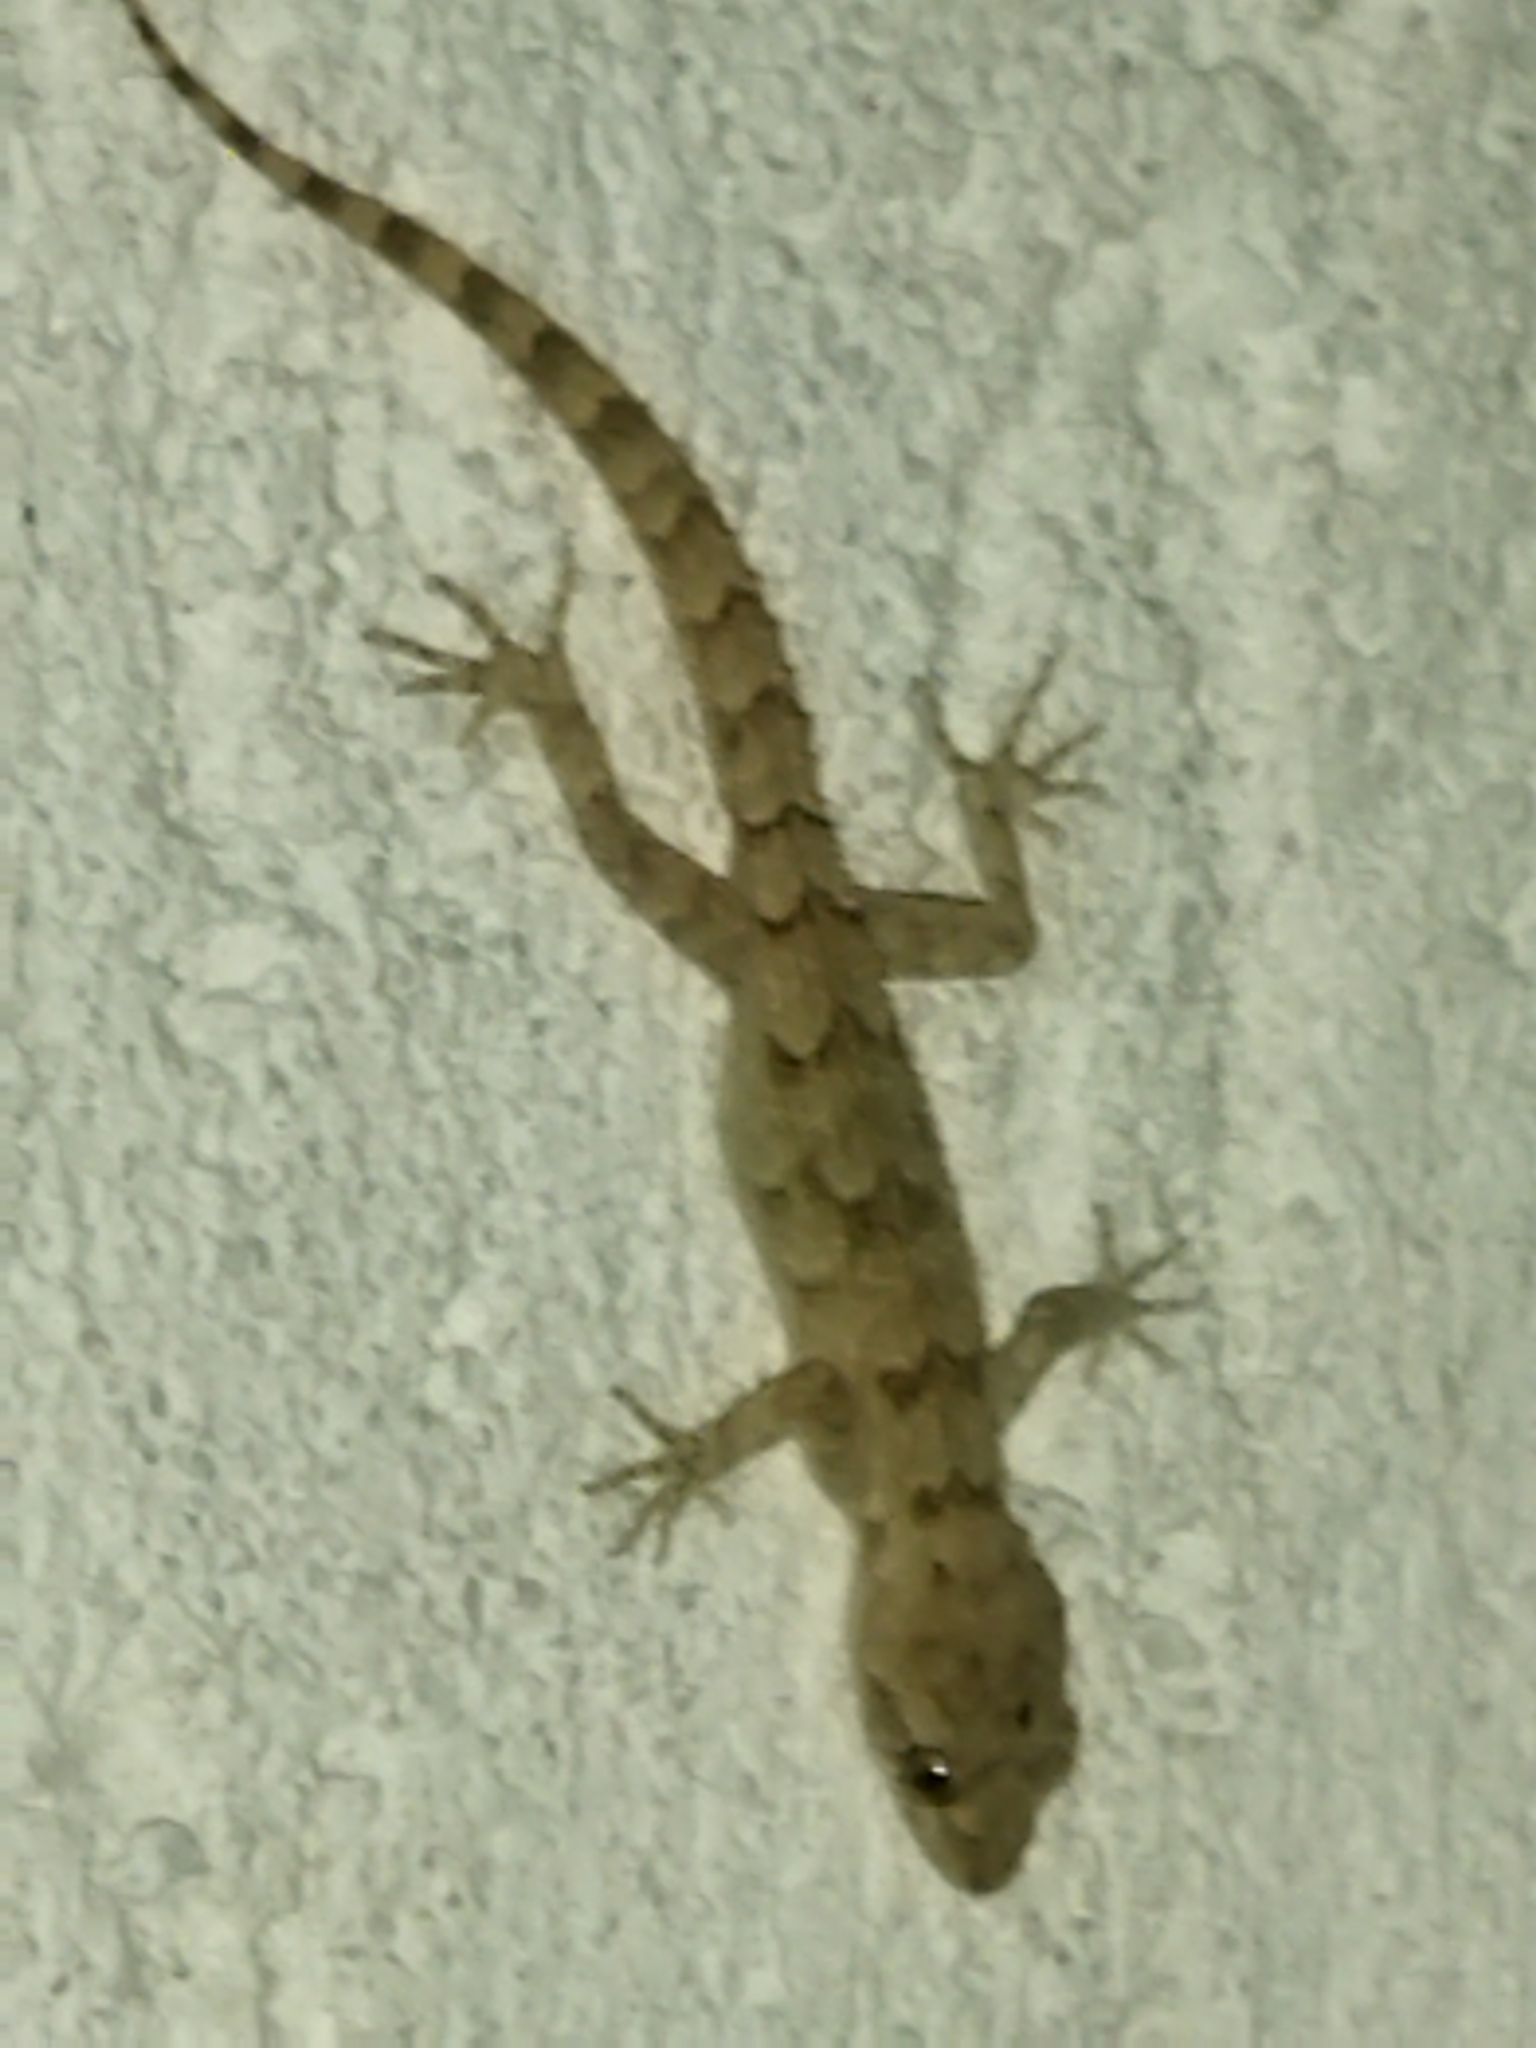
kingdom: Animalia
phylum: Chordata
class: Squamata
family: Gekkonidae
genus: Mediodactylus
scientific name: Mediodactylus kotschyi
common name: Kotschy's gecko
